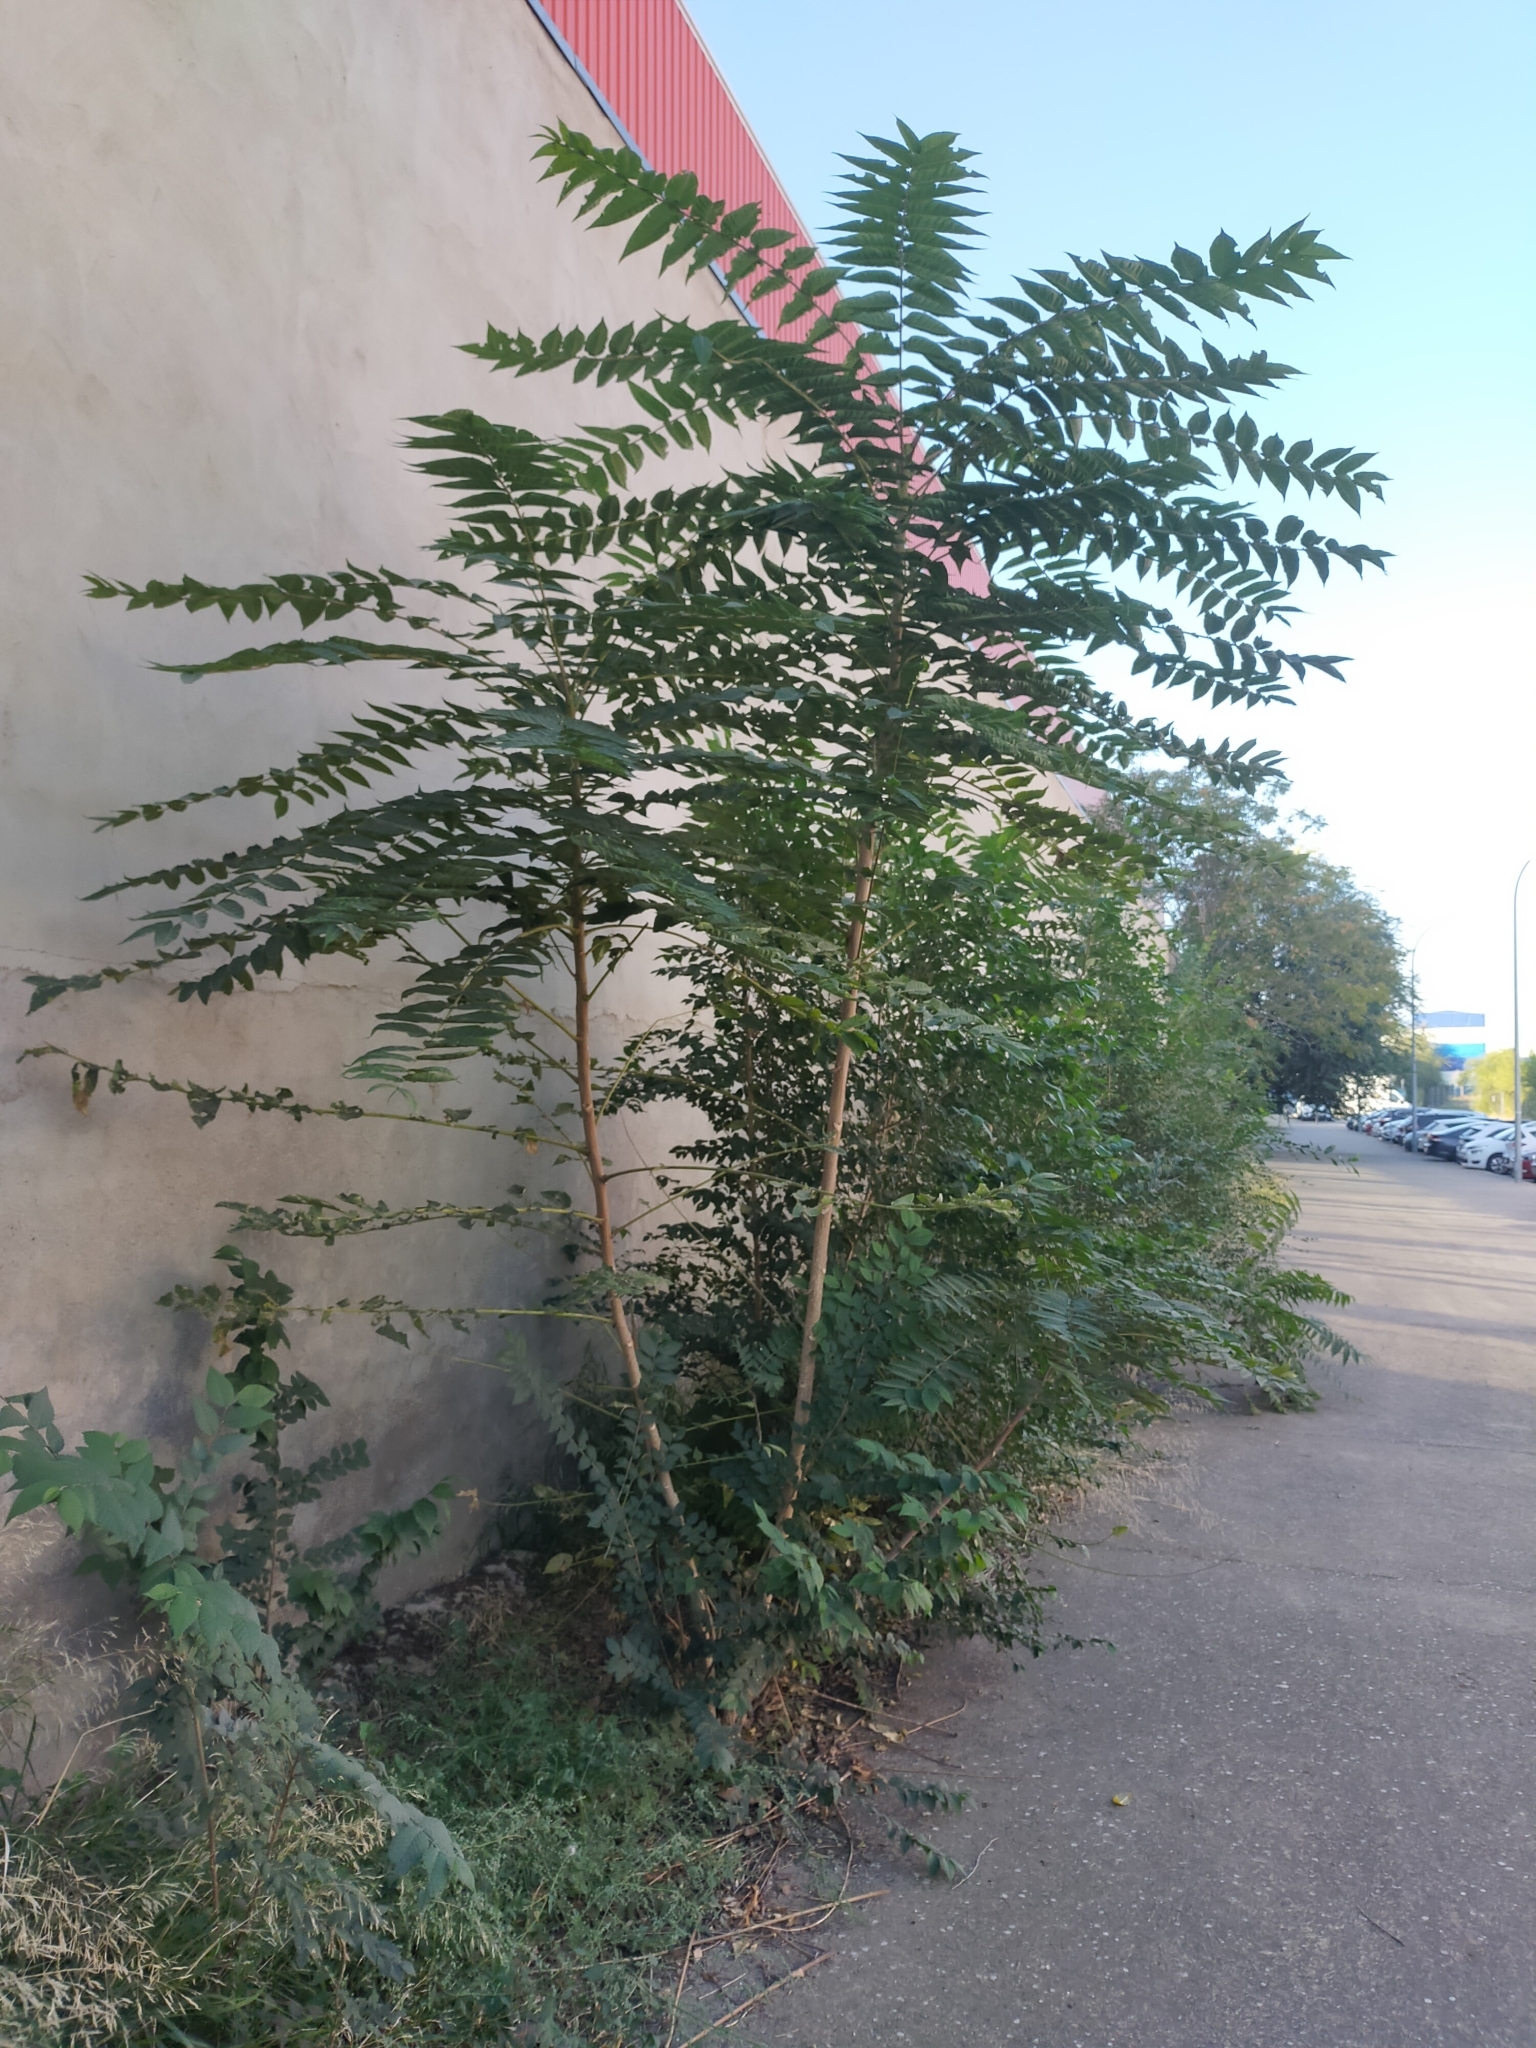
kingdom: Plantae
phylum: Tracheophyta
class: Magnoliopsida
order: Sapindales
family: Simaroubaceae
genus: Ailanthus
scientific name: Ailanthus altissima
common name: Tree-of-heaven
